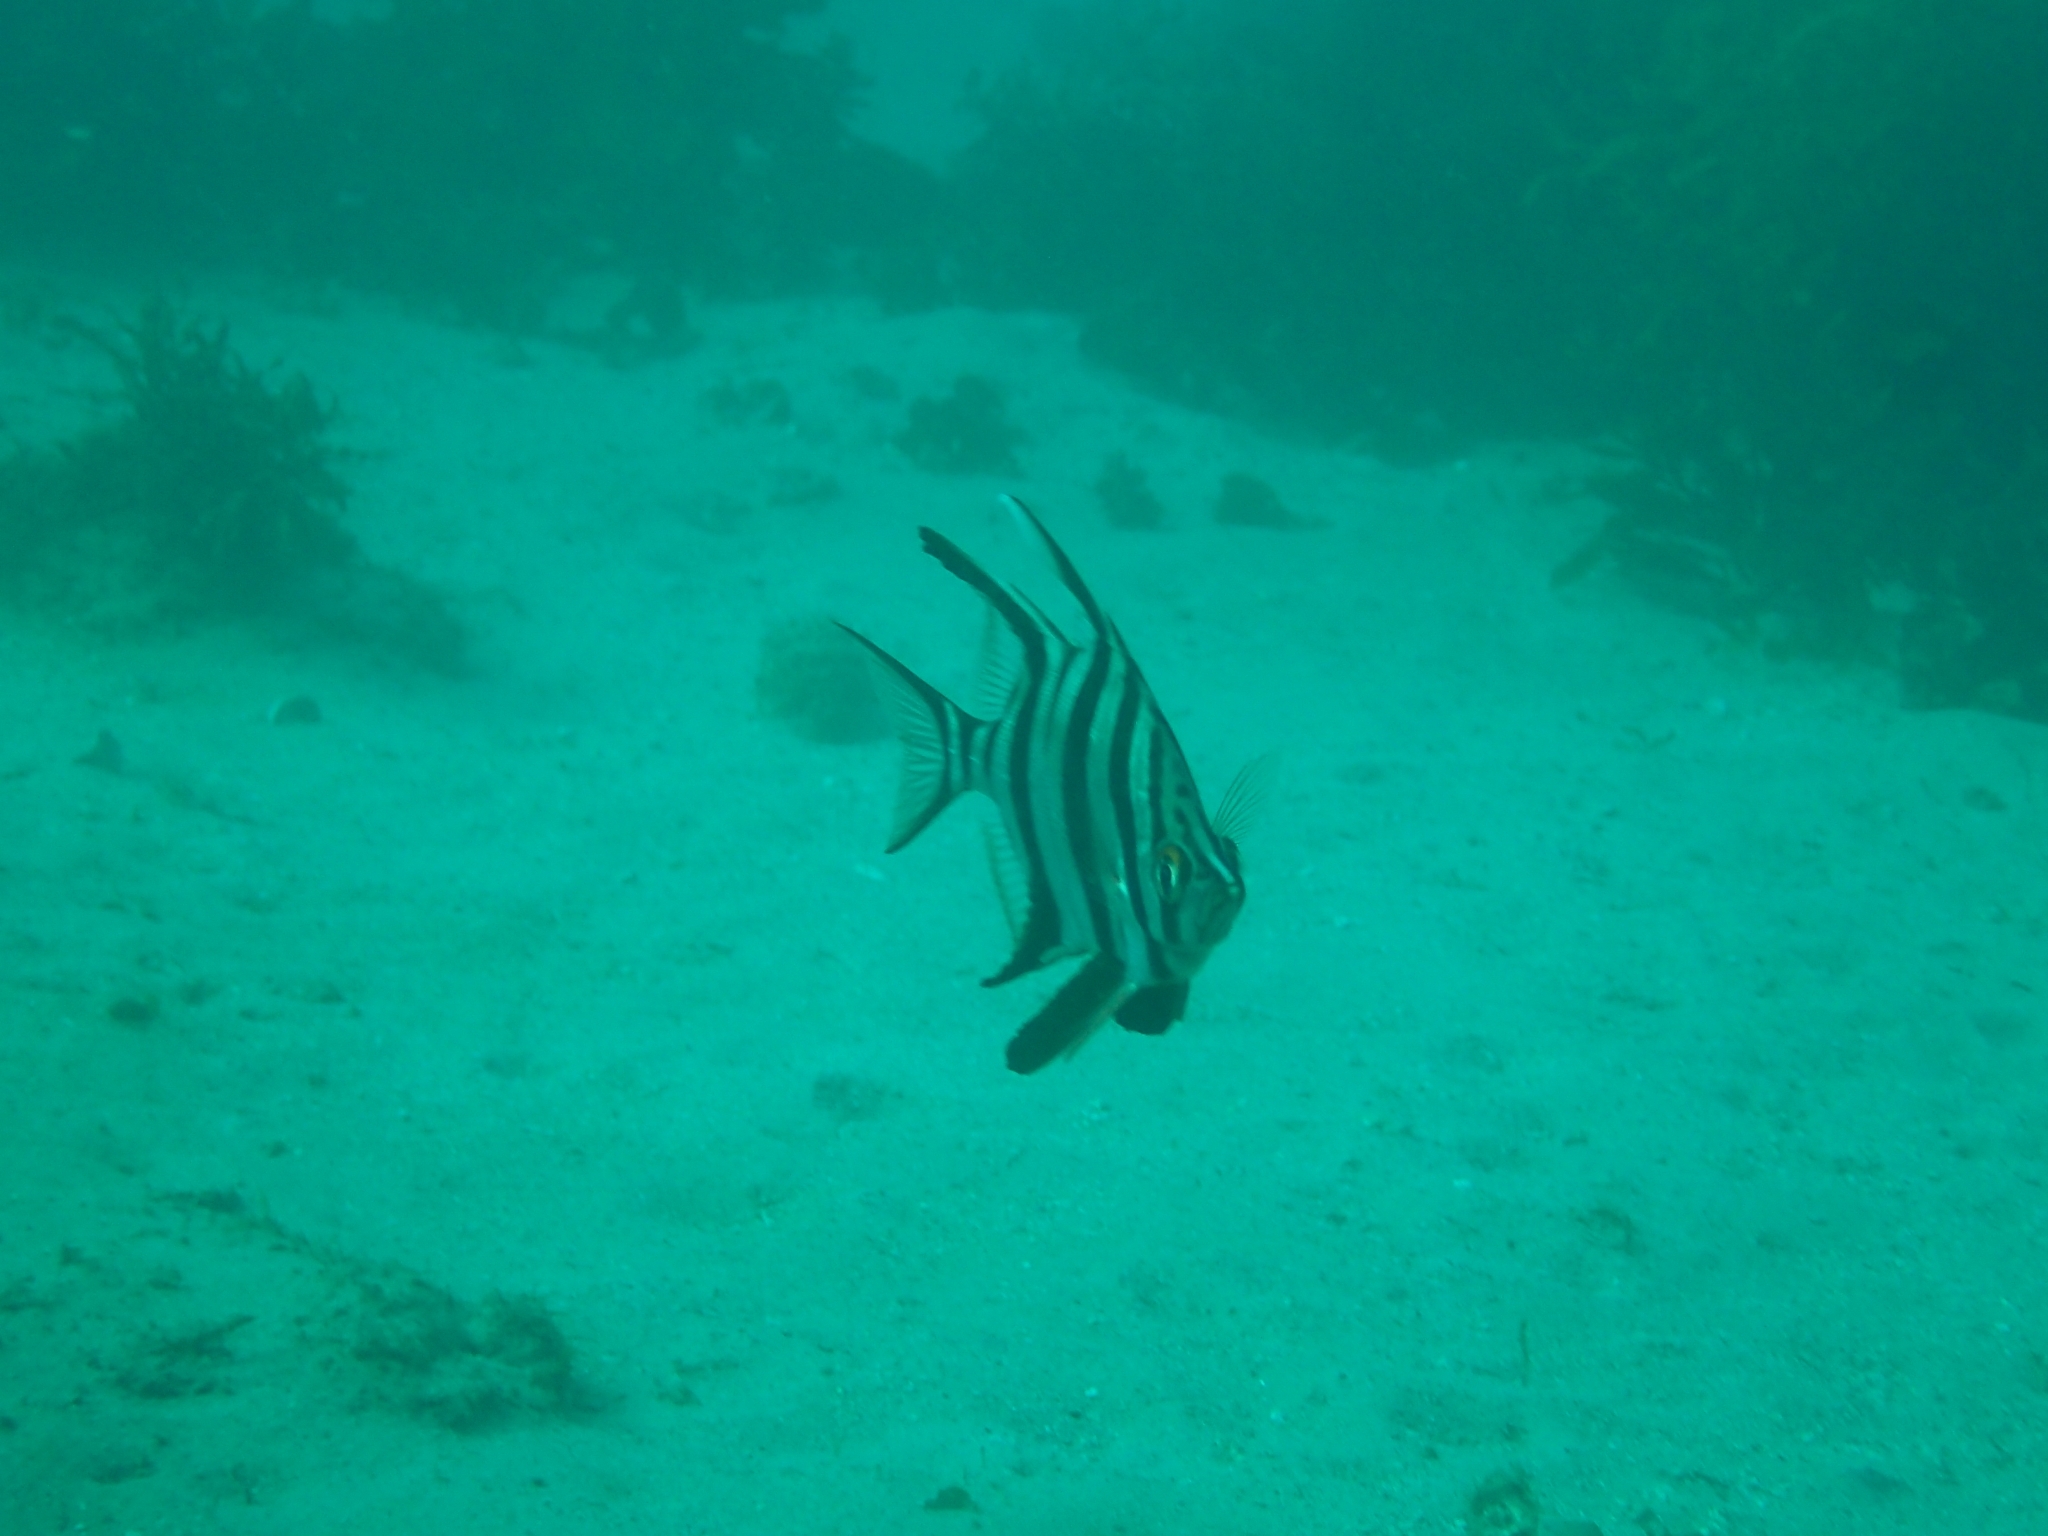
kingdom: Animalia
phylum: Chordata
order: Perciformes
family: Enoplosidae
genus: Enoplosus
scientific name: Enoplosus armatus
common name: Old wife
